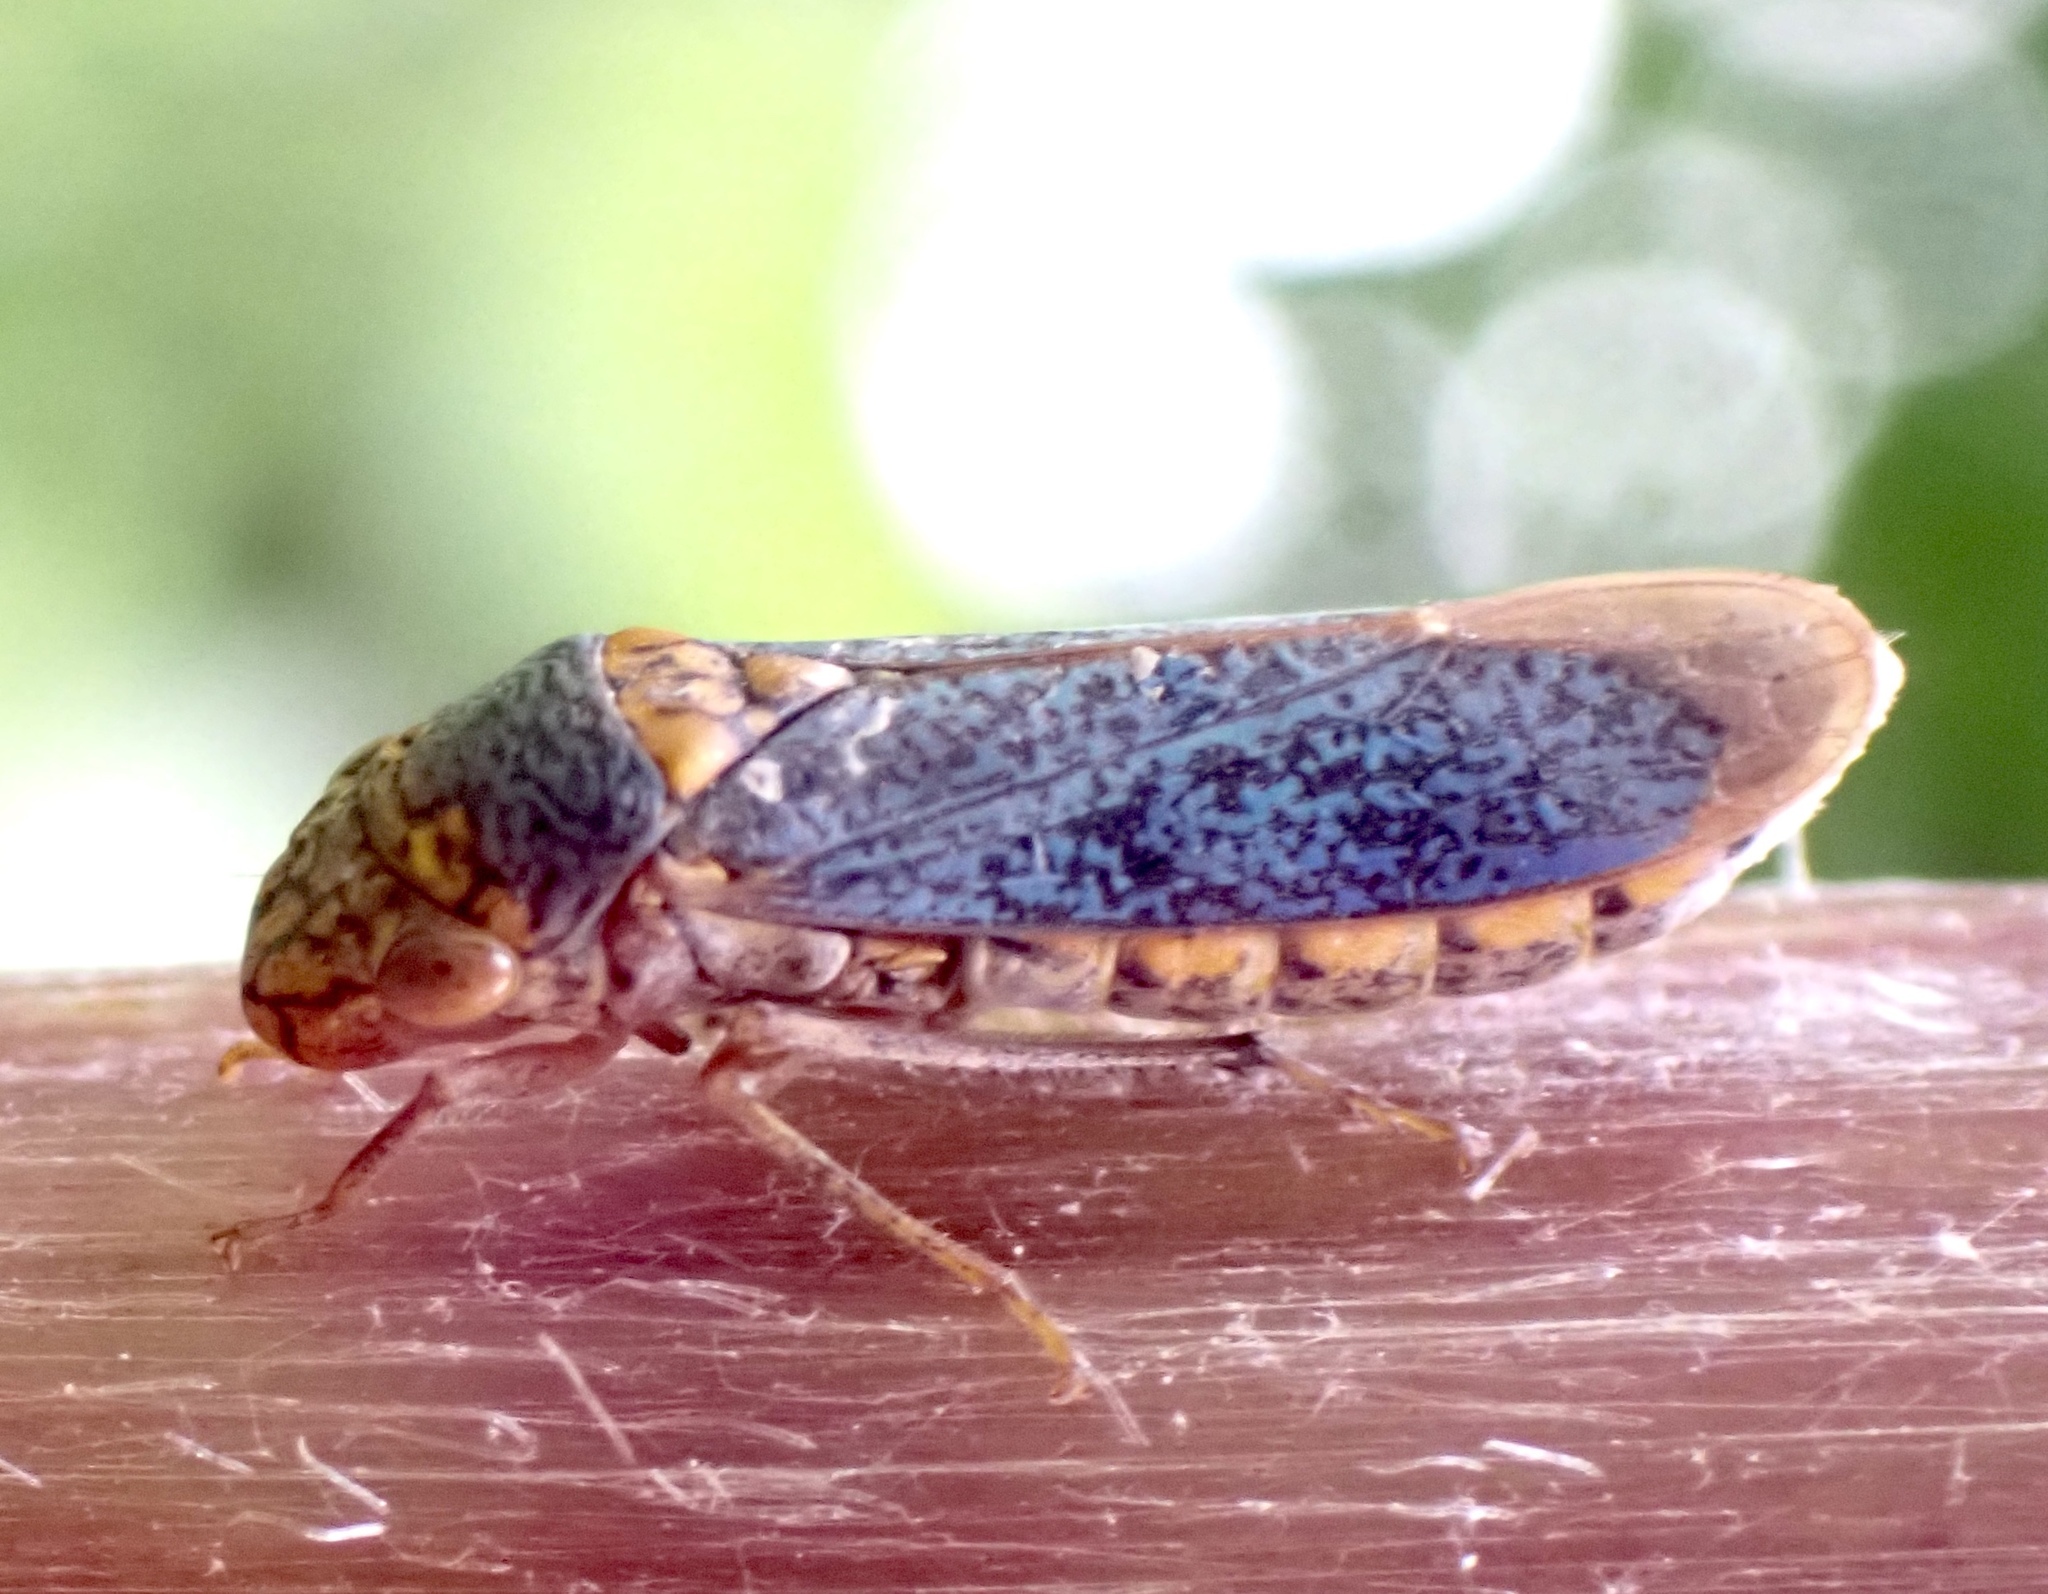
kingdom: Animalia
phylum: Arthropoda
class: Insecta
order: Hemiptera
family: Cicadellidae
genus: Oncometopia
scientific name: Oncometopia orbona
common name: Broad-headed sharpshooter
